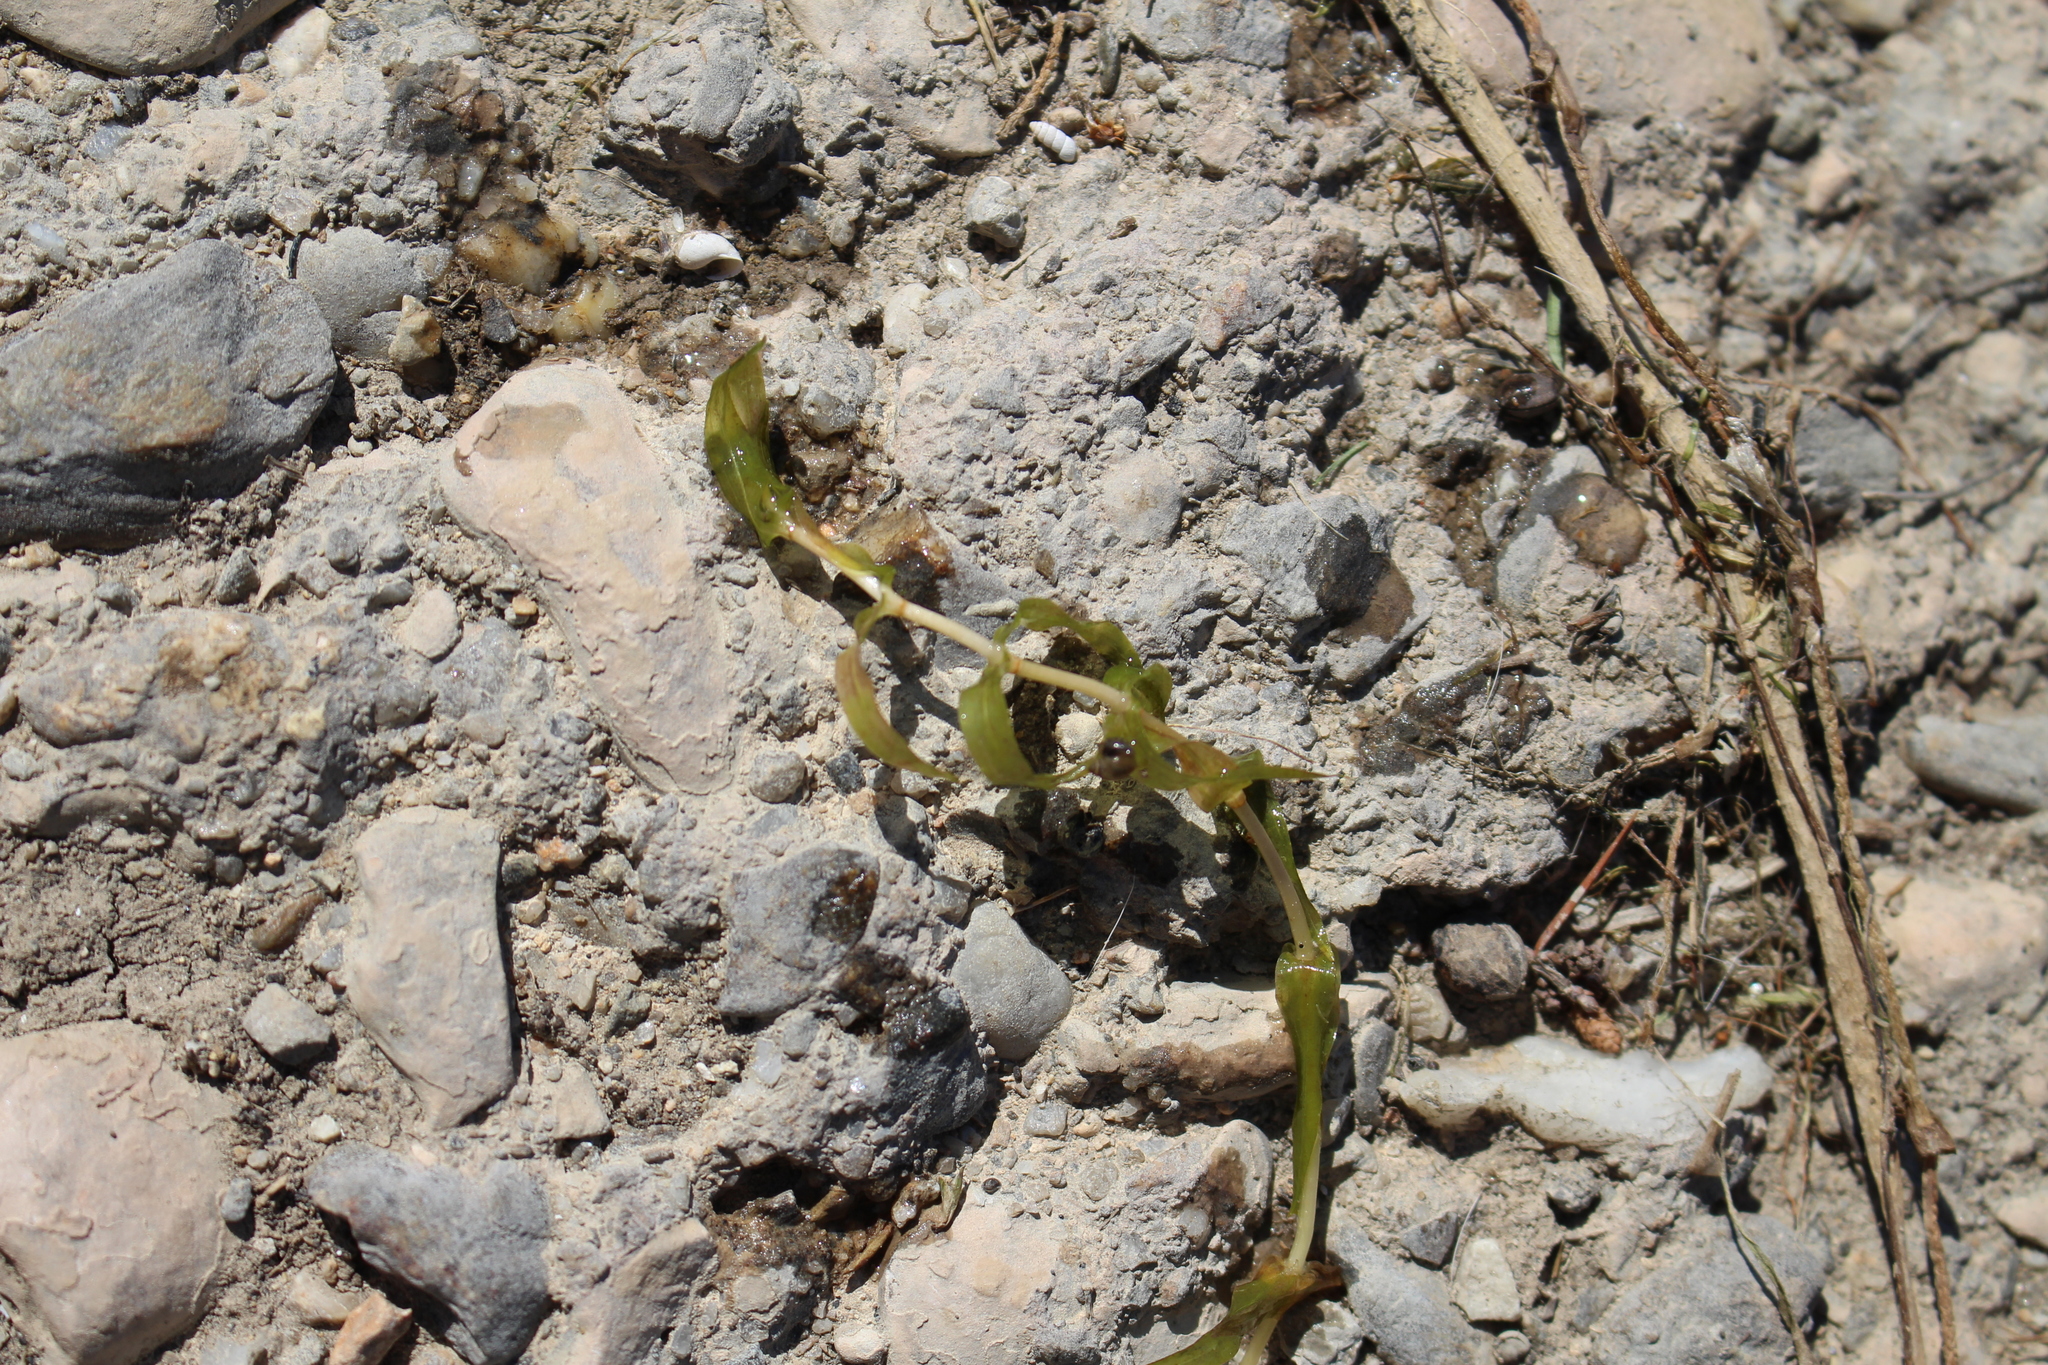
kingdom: Plantae
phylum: Tracheophyta
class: Liliopsida
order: Alismatales
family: Potamogetonaceae
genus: Groenlandia
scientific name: Groenlandia densa
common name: Opposite-leaved pondweed
